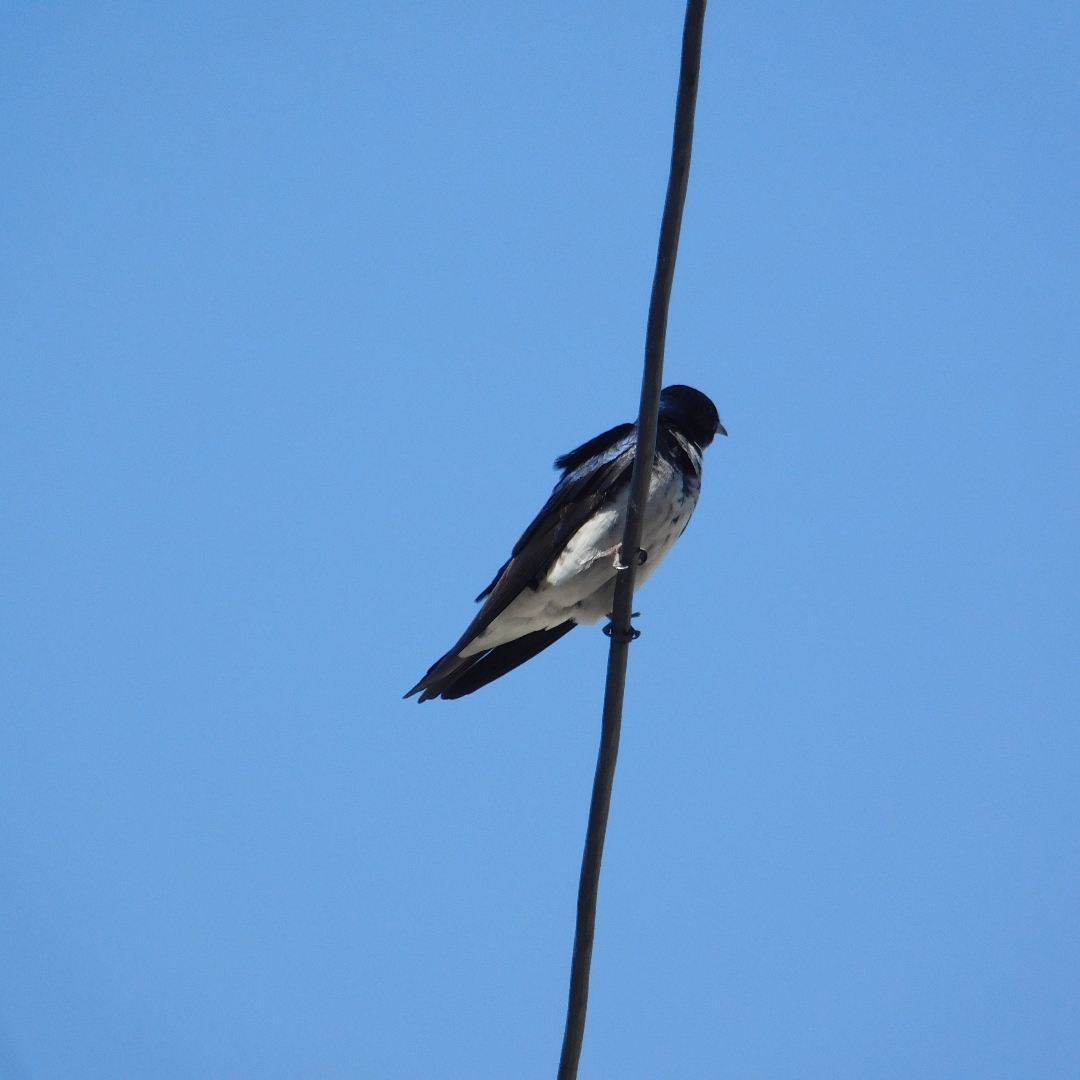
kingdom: Animalia
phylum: Chordata
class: Aves
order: Passeriformes
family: Hirundinidae
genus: Progne
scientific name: Progne chalybea
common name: Grey-breasted martin
